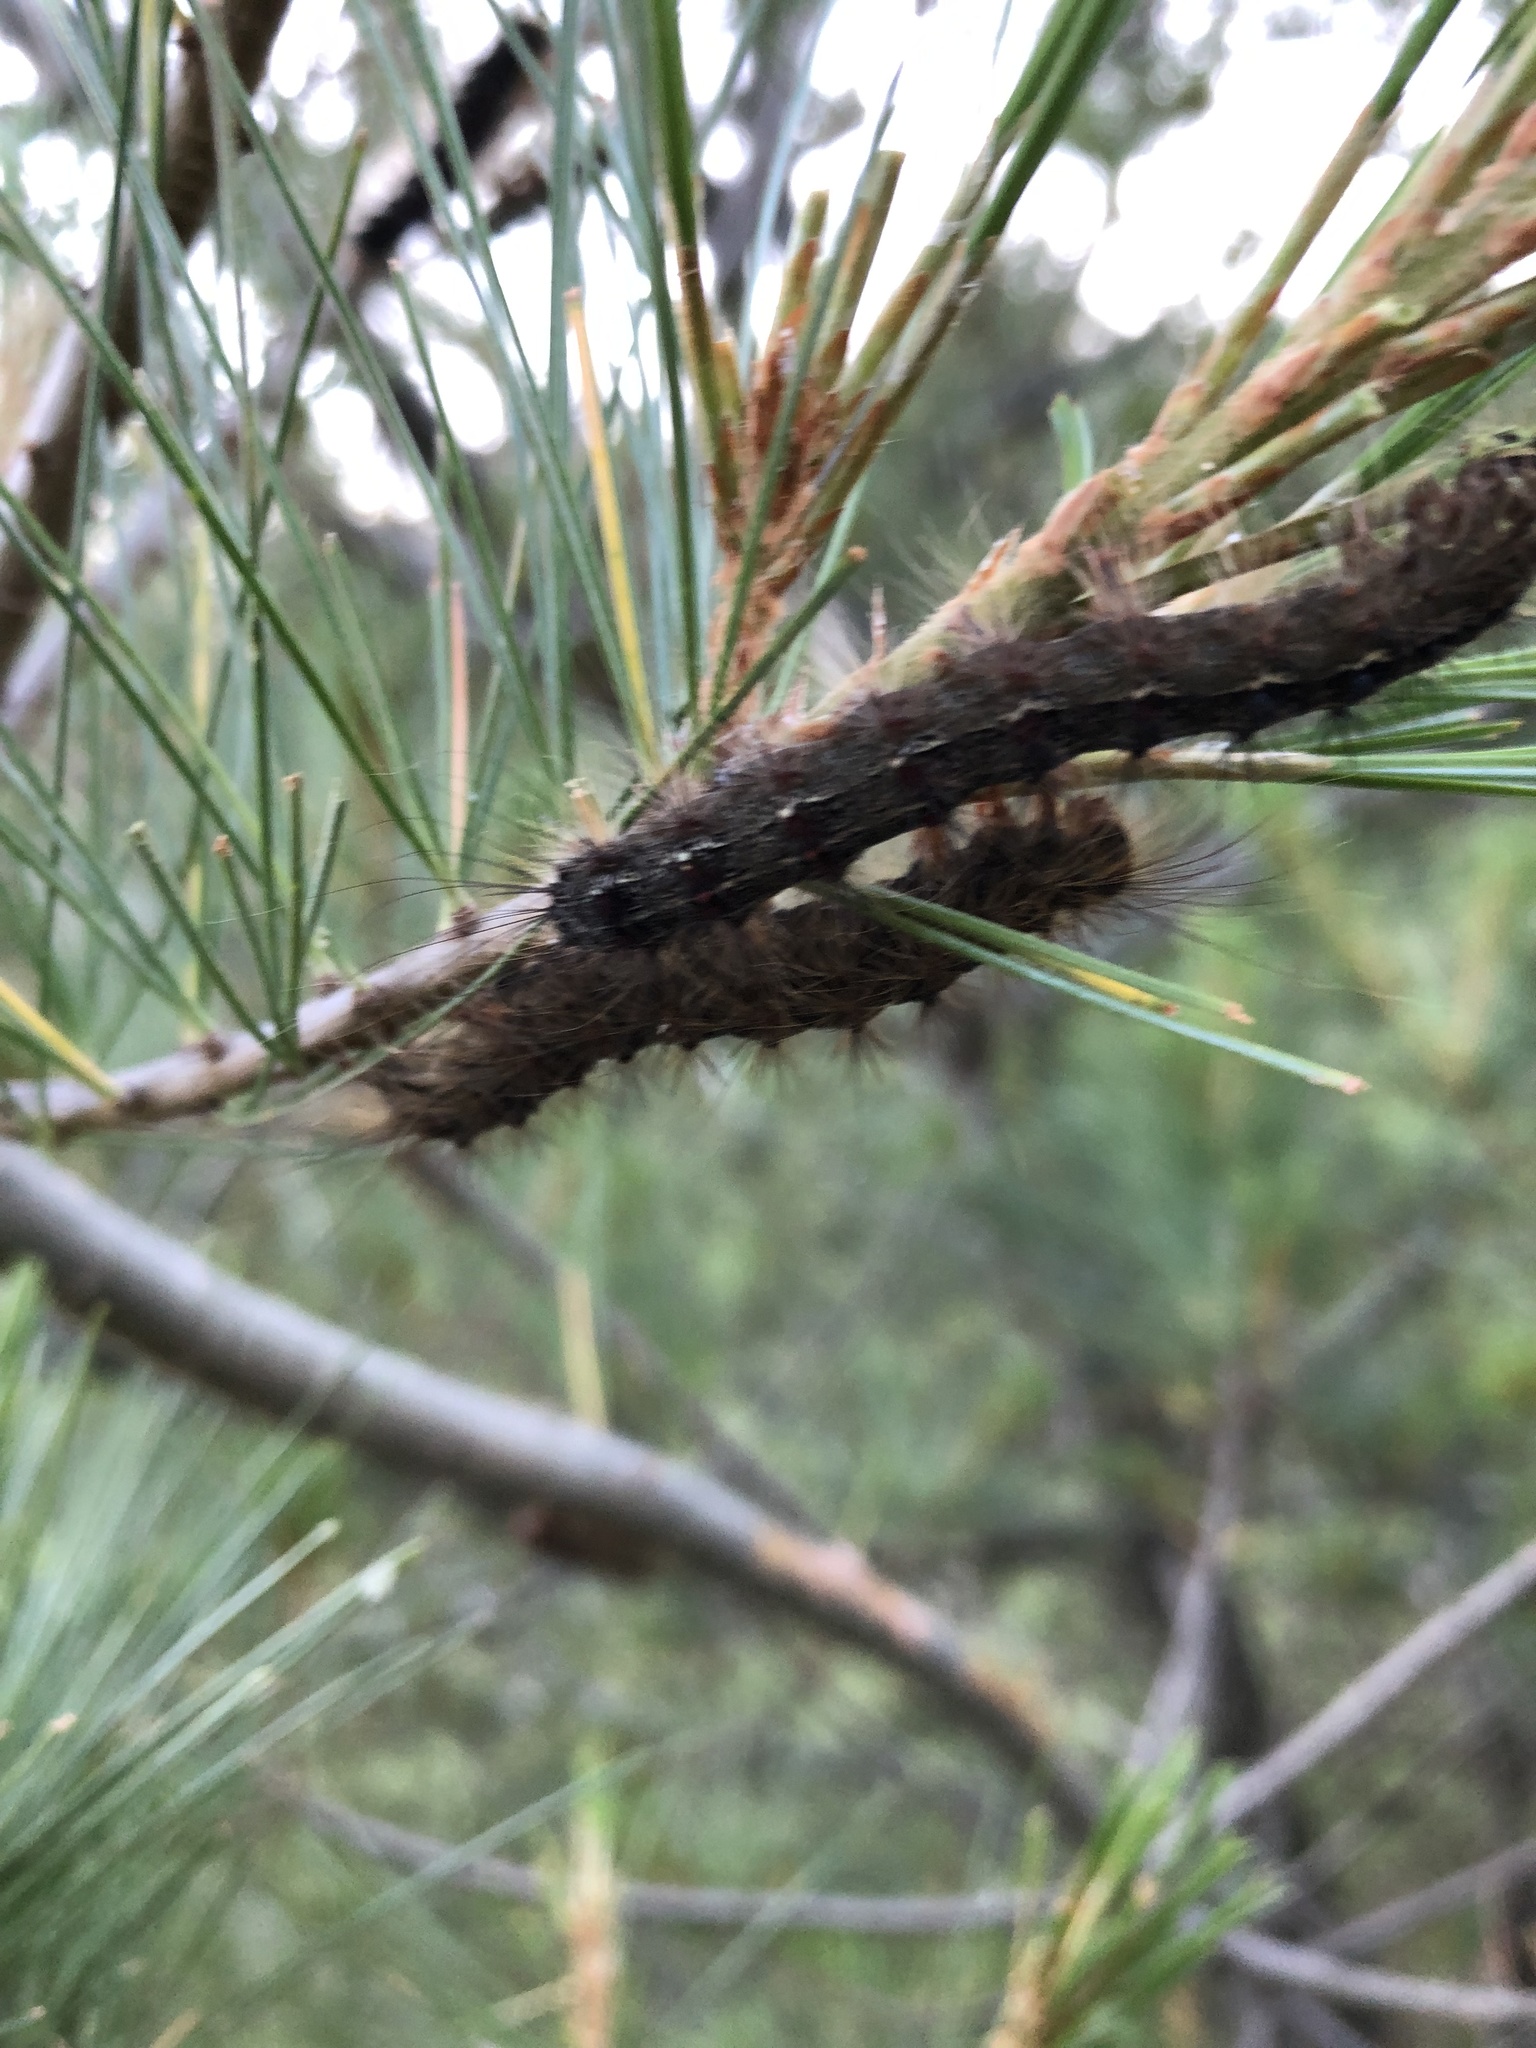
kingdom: Animalia
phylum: Arthropoda
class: Insecta
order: Lepidoptera
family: Erebidae
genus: Lymantria
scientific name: Lymantria dispar
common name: Gypsy moth
